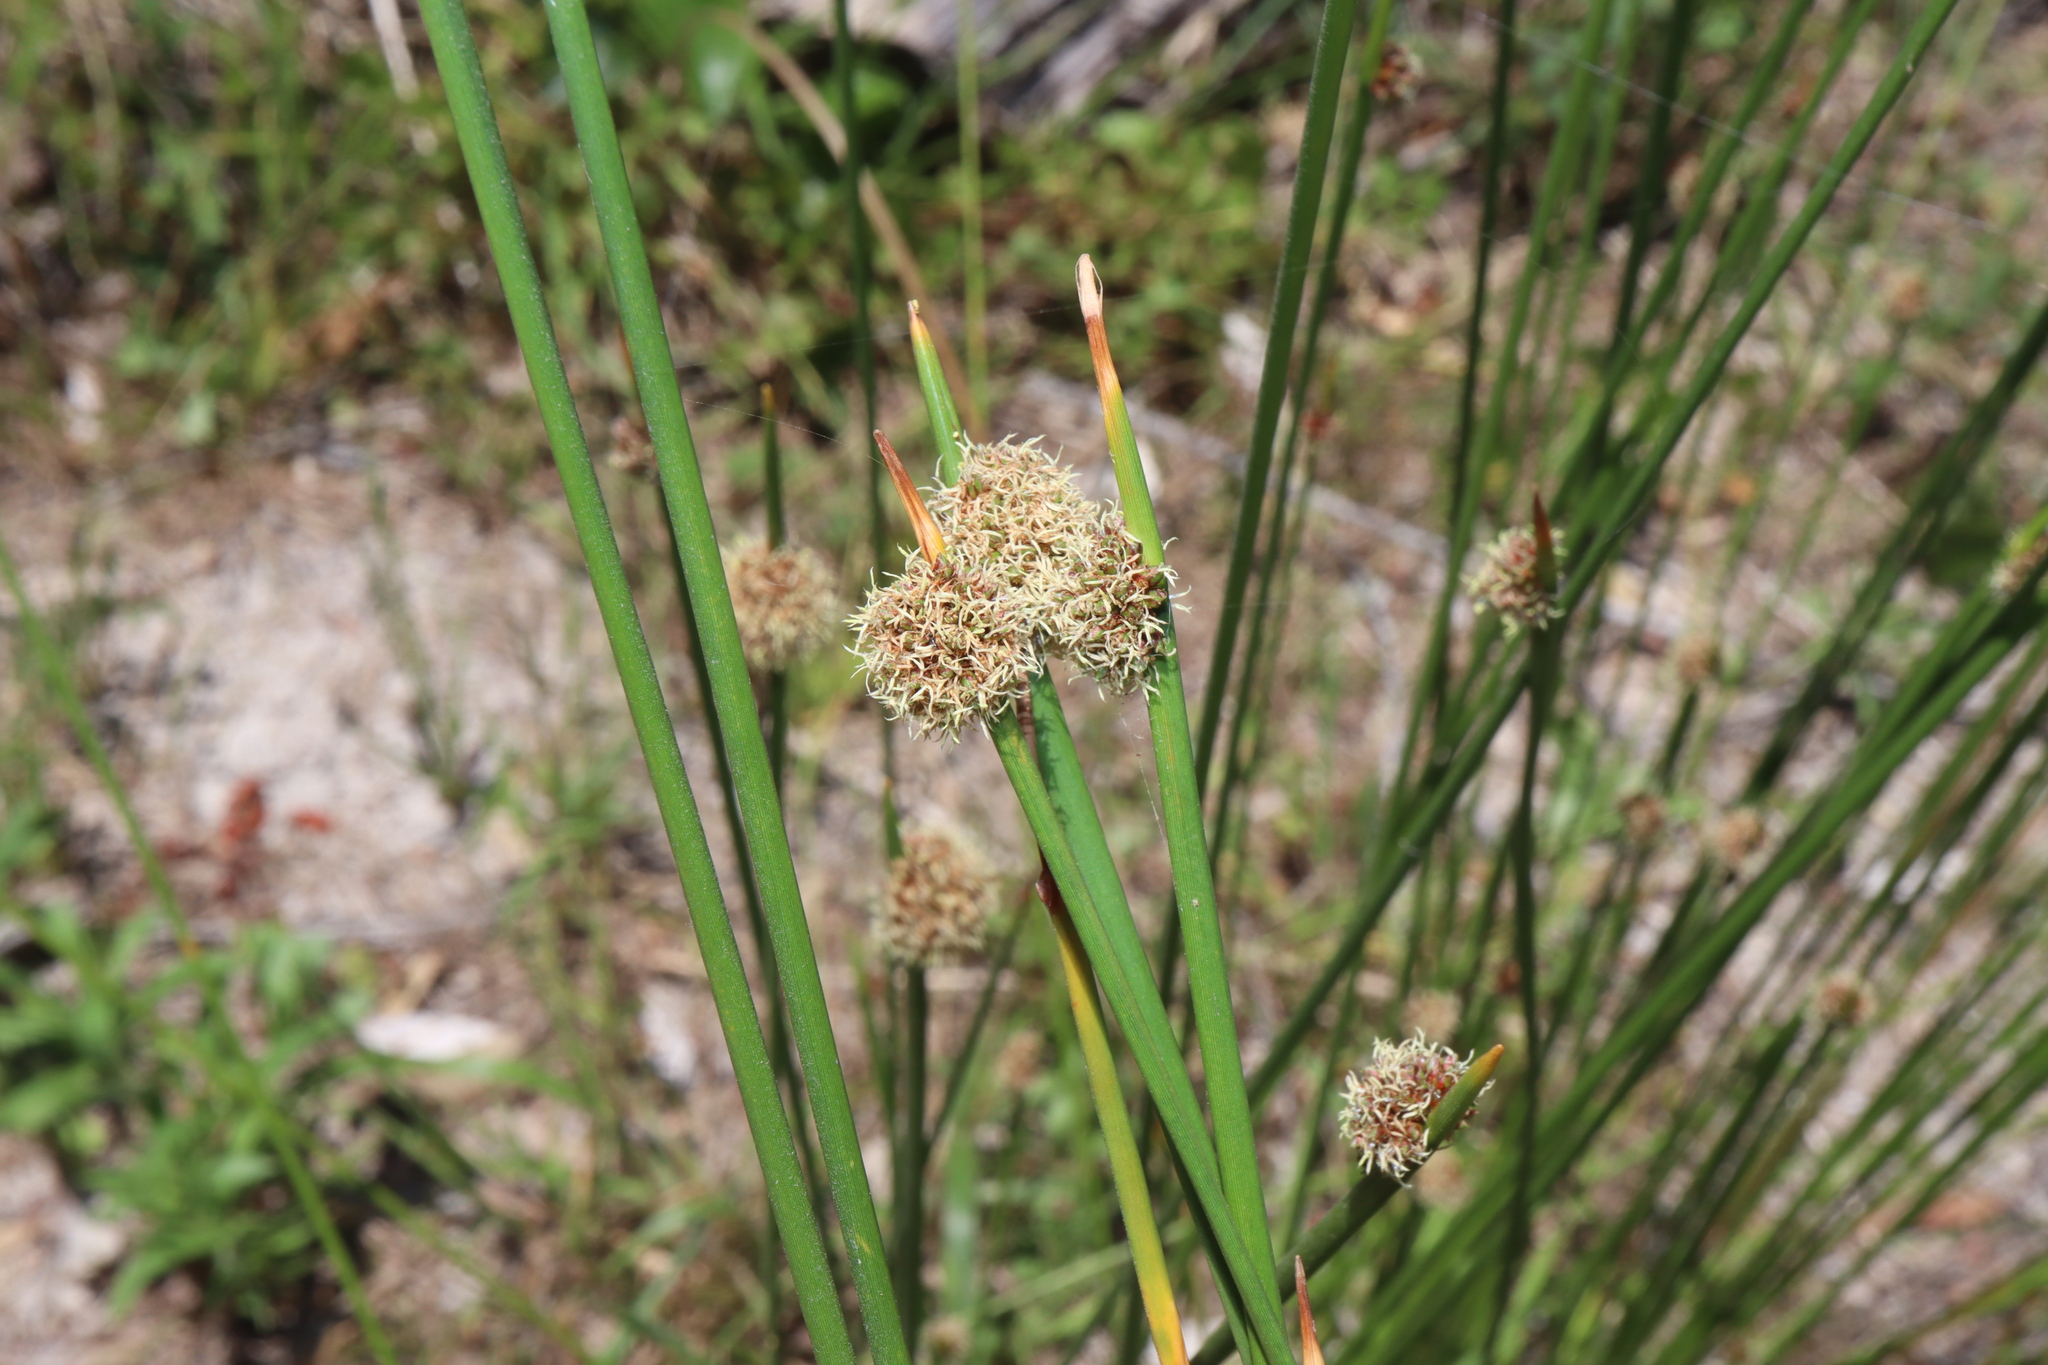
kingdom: Plantae
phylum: Tracheophyta
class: Liliopsida
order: Poales
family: Cyperaceae
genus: Ficinia
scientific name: Ficinia nodosa
